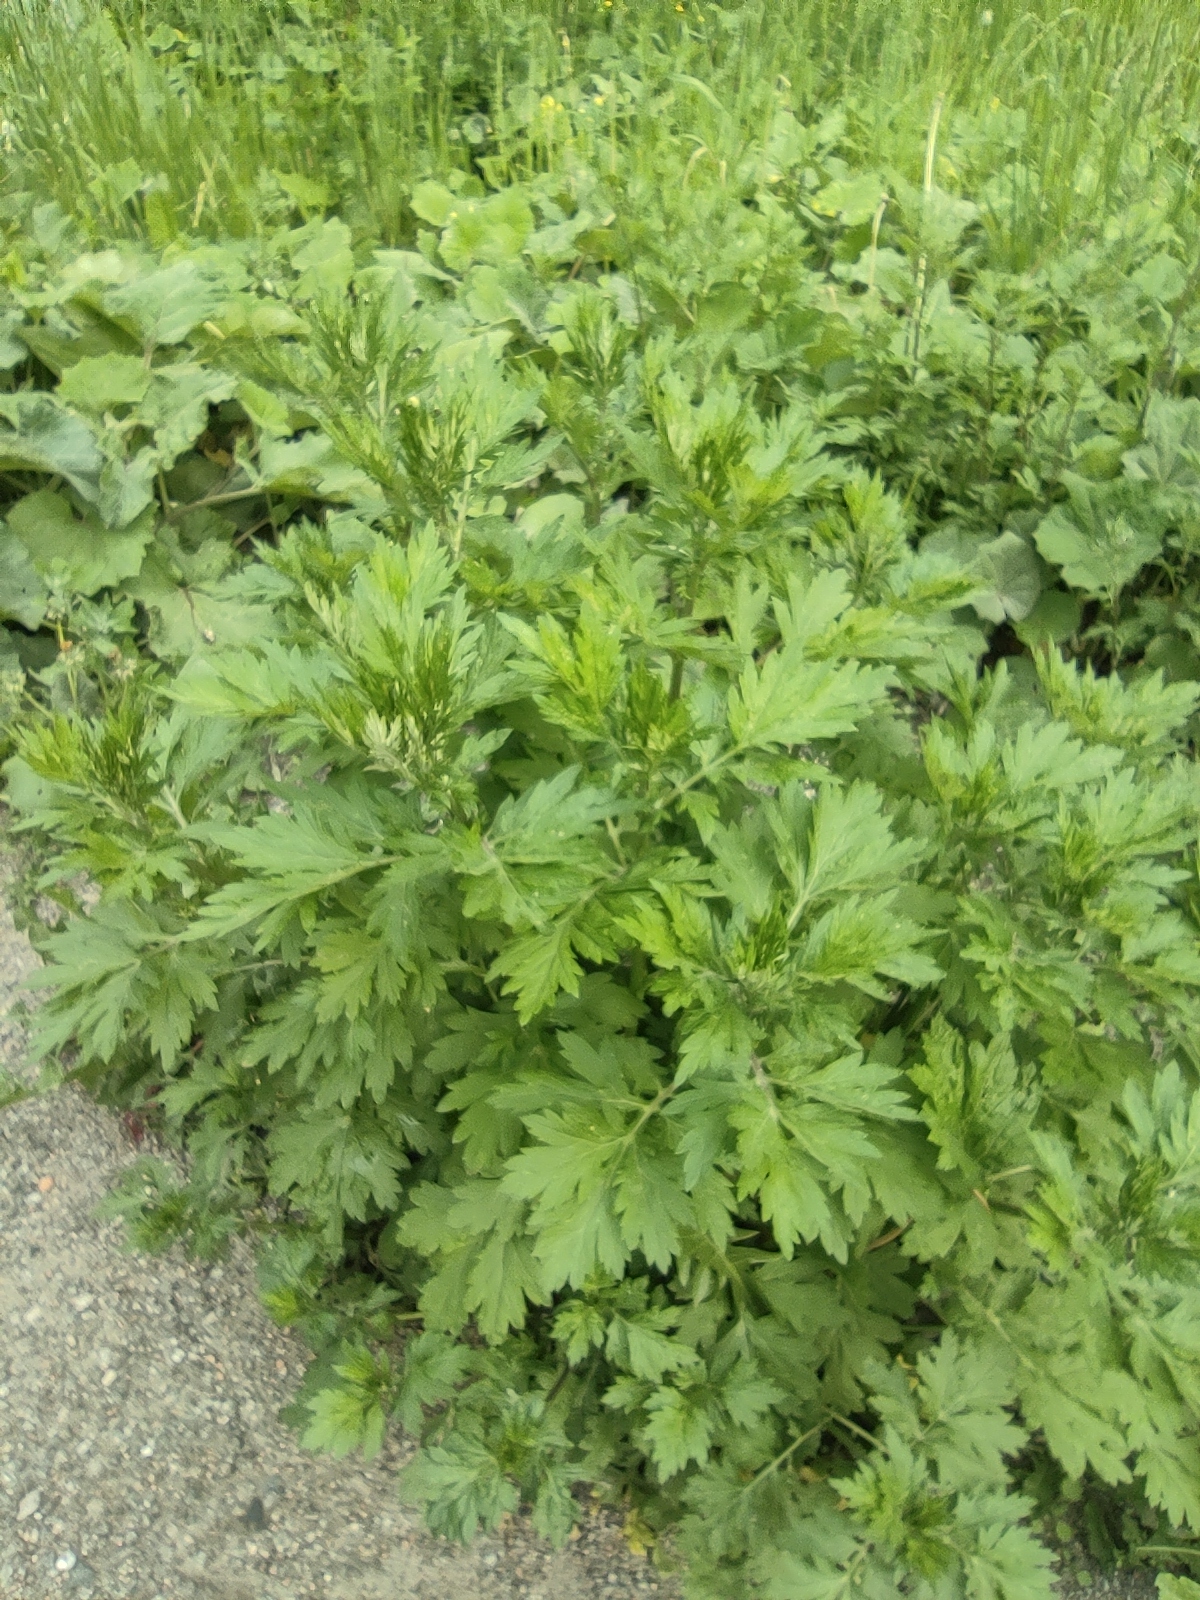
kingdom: Plantae
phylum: Tracheophyta
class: Magnoliopsida
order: Asterales
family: Asteraceae
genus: Artemisia
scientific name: Artemisia vulgaris
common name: Mugwort
